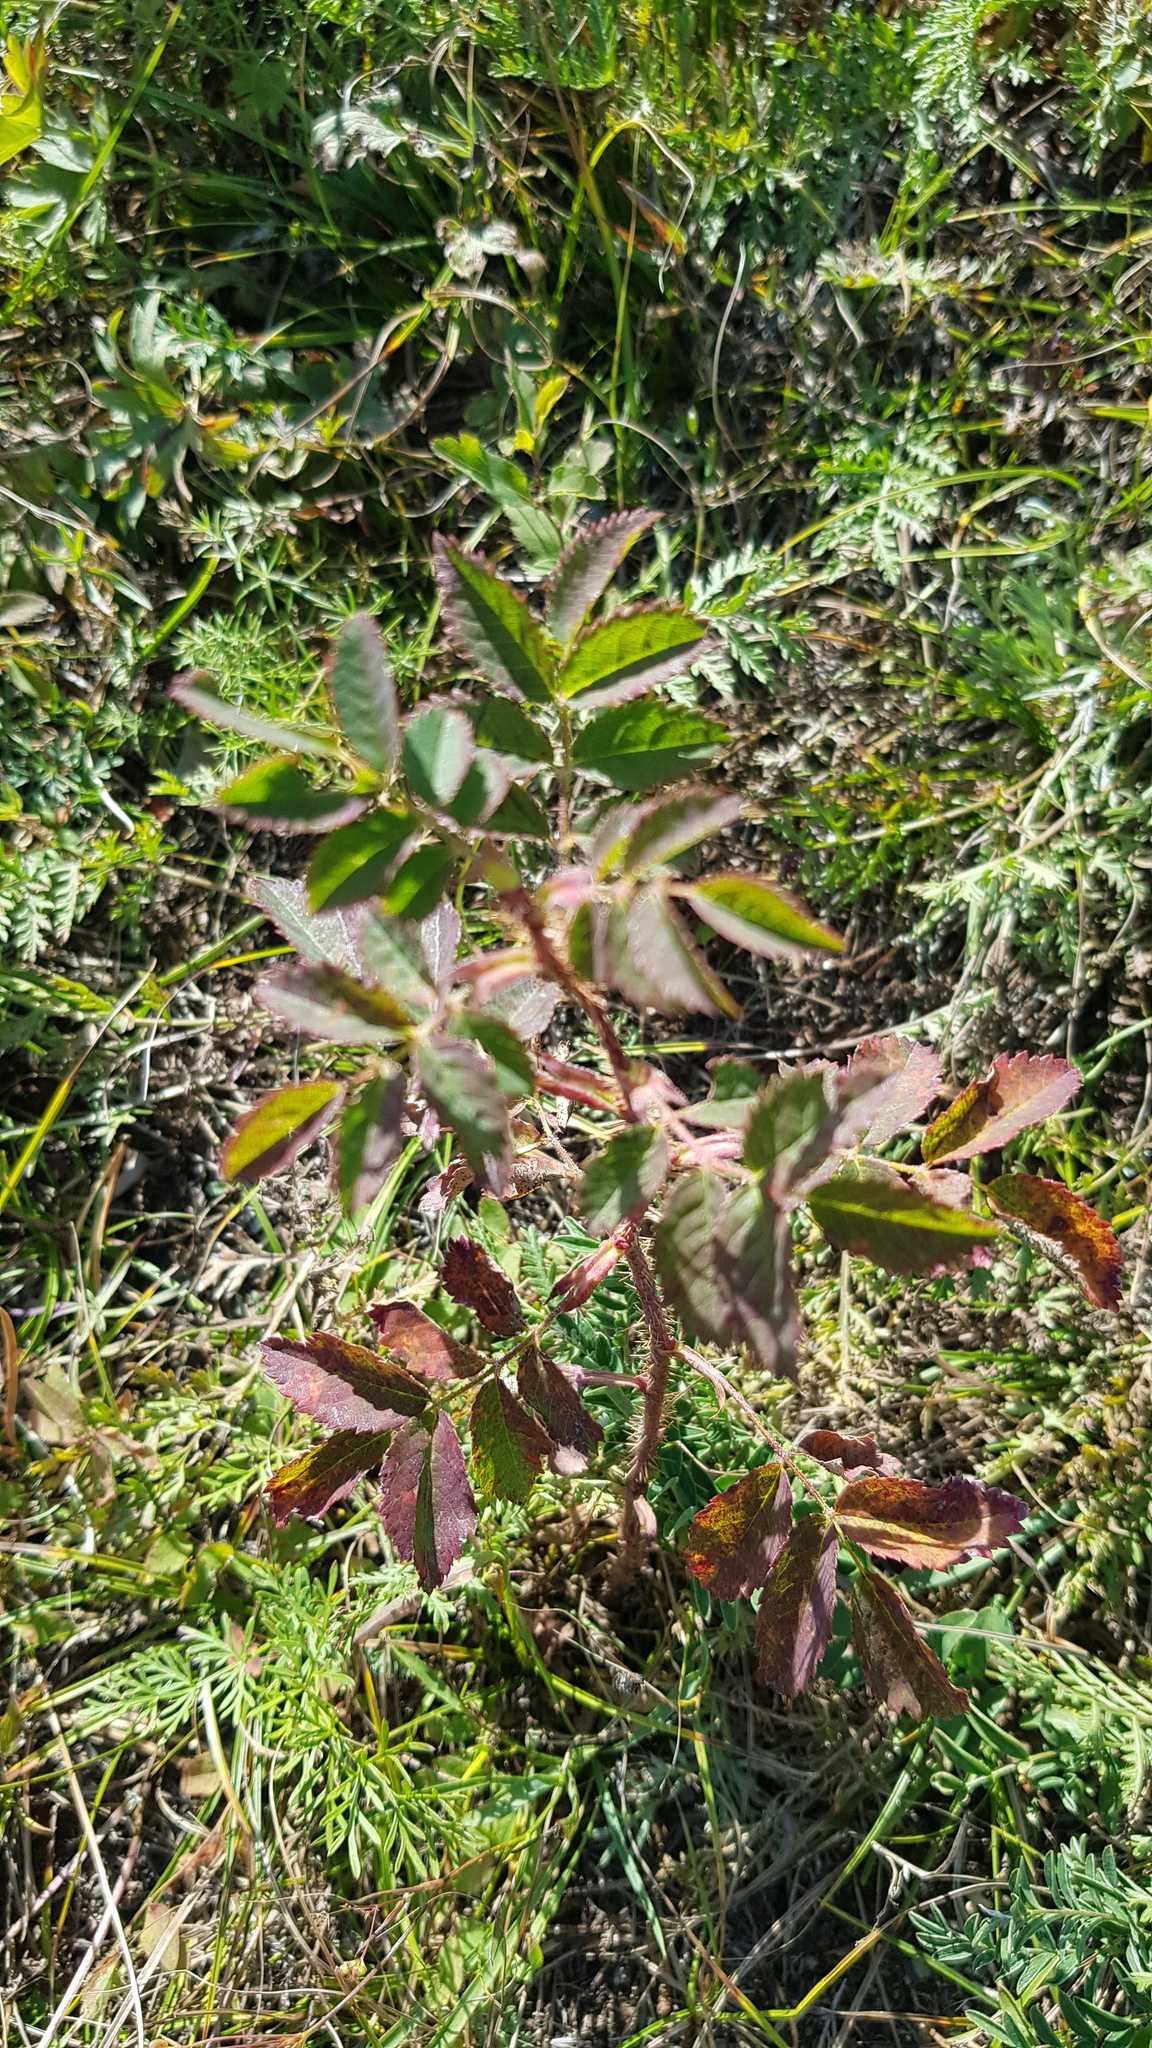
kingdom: Plantae
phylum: Tracheophyta
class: Magnoliopsida
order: Rosales
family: Rosaceae
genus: Rosa
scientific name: Rosa acicularis
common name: Prickly rose
